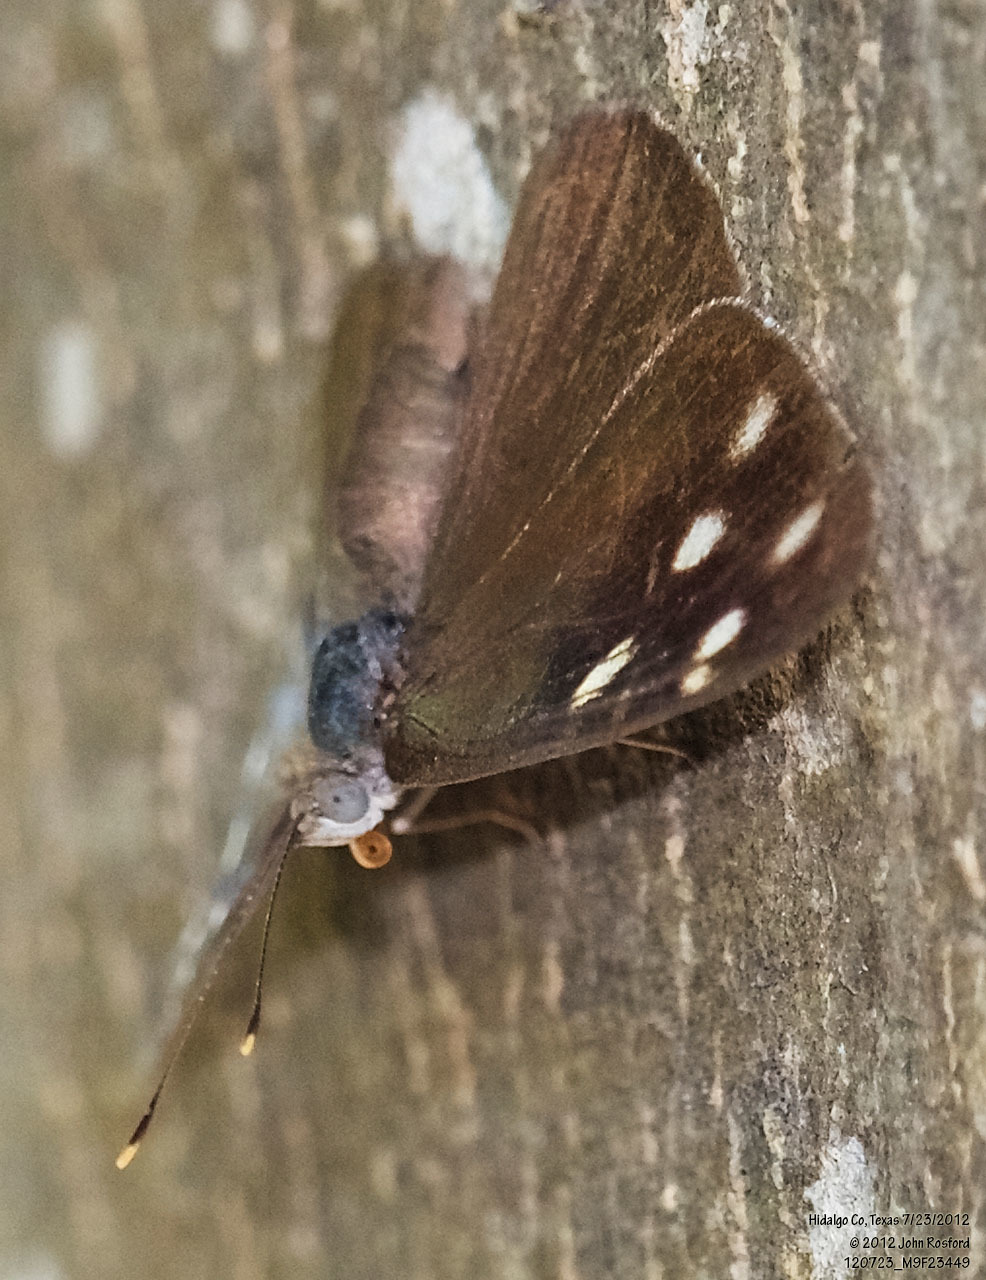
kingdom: Animalia
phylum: Arthropoda
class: Insecta
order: Lepidoptera
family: Nymphalidae
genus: Eunica
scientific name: Eunica monima
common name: Dingy purplewing
